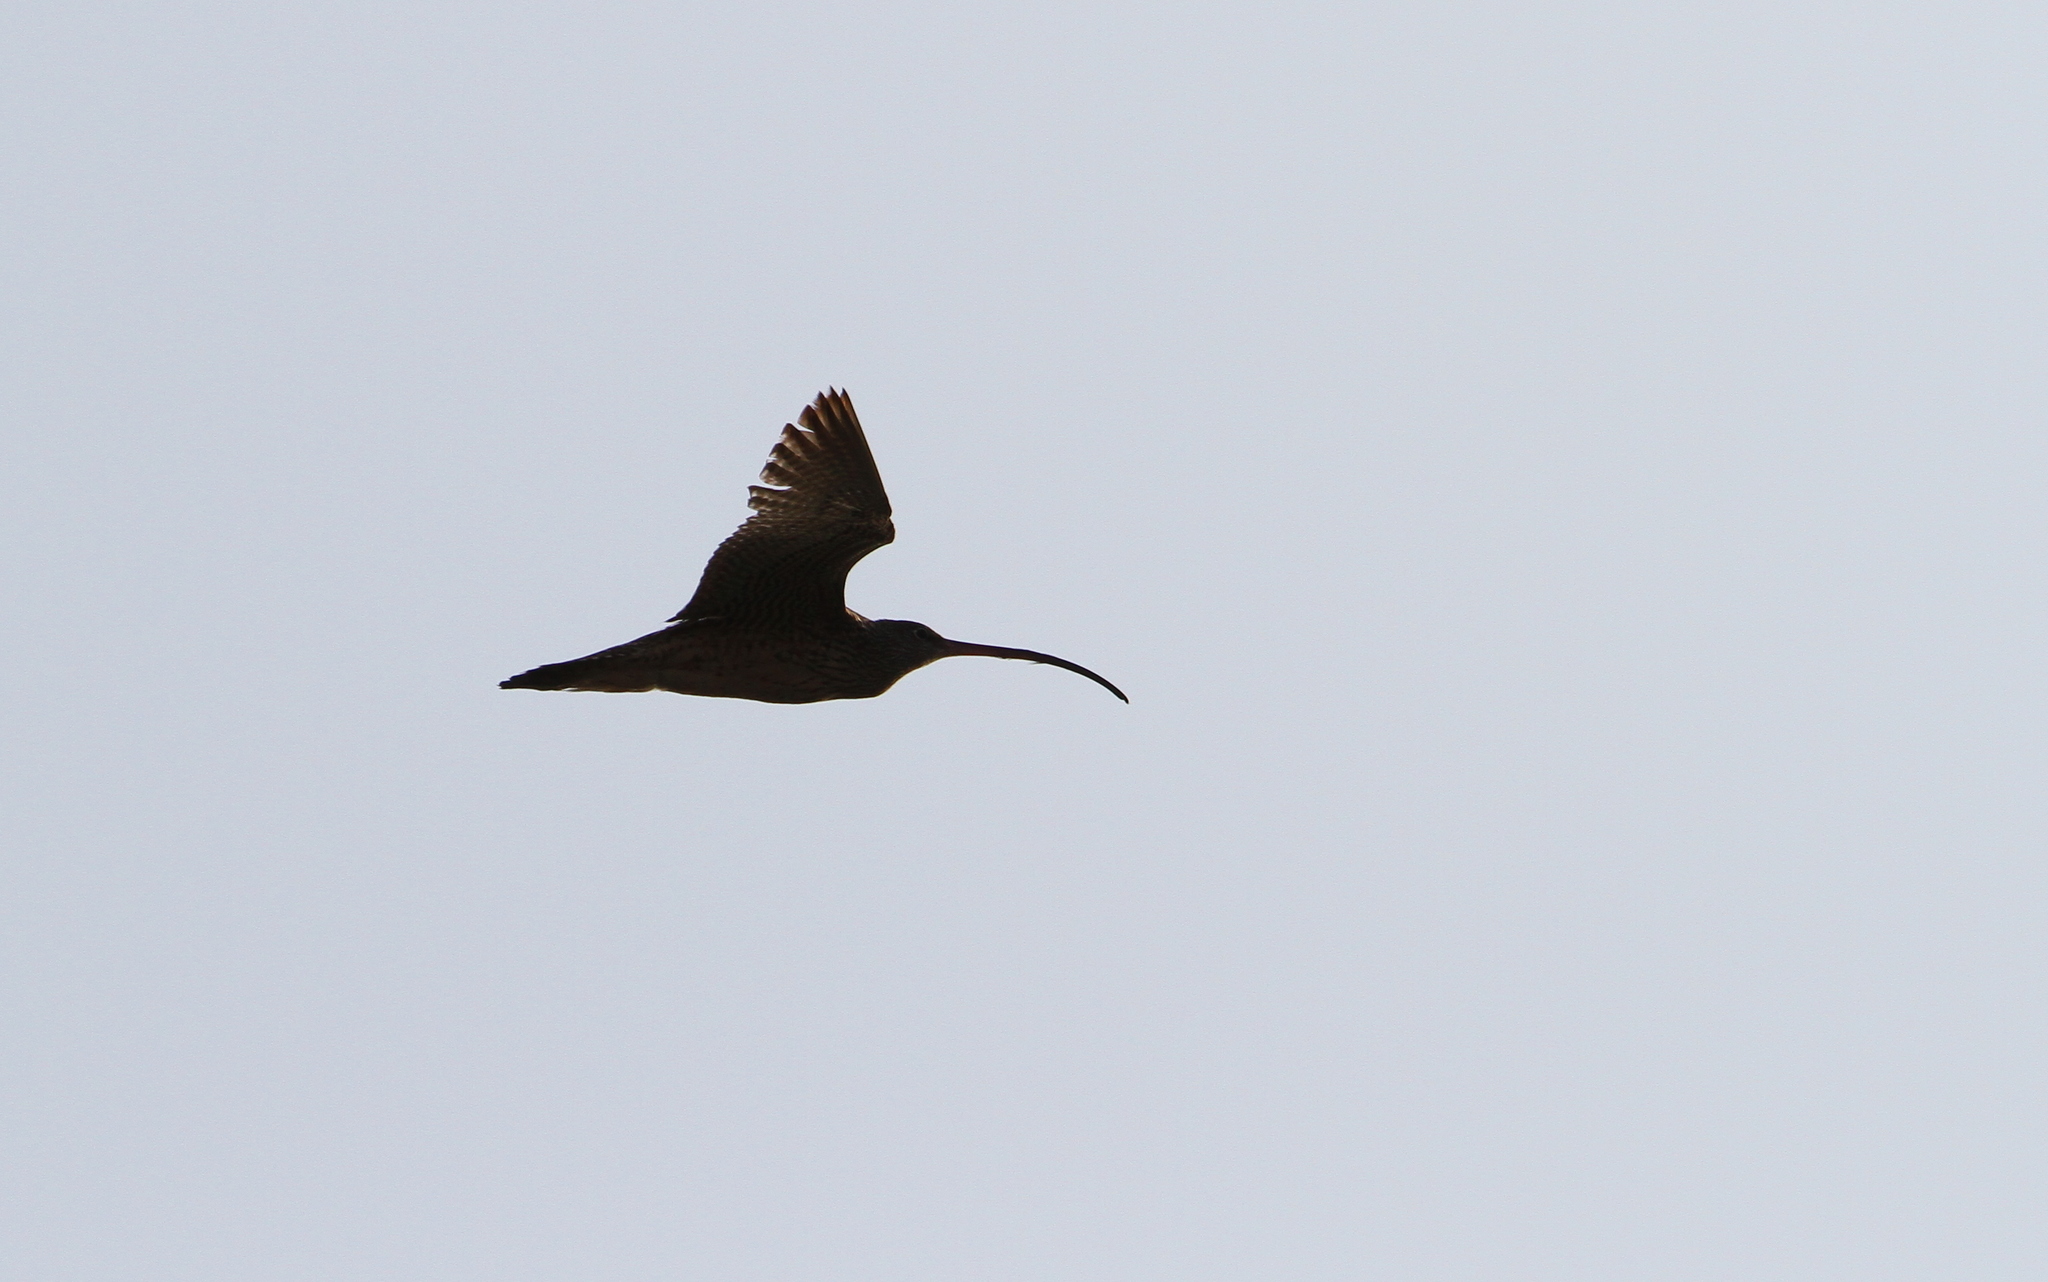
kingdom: Animalia
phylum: Chordata
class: Aves
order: Charadriiformes
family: Scolopacidae
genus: Numenius
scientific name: Numenius madagascariensis
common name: Far eastern curlew
